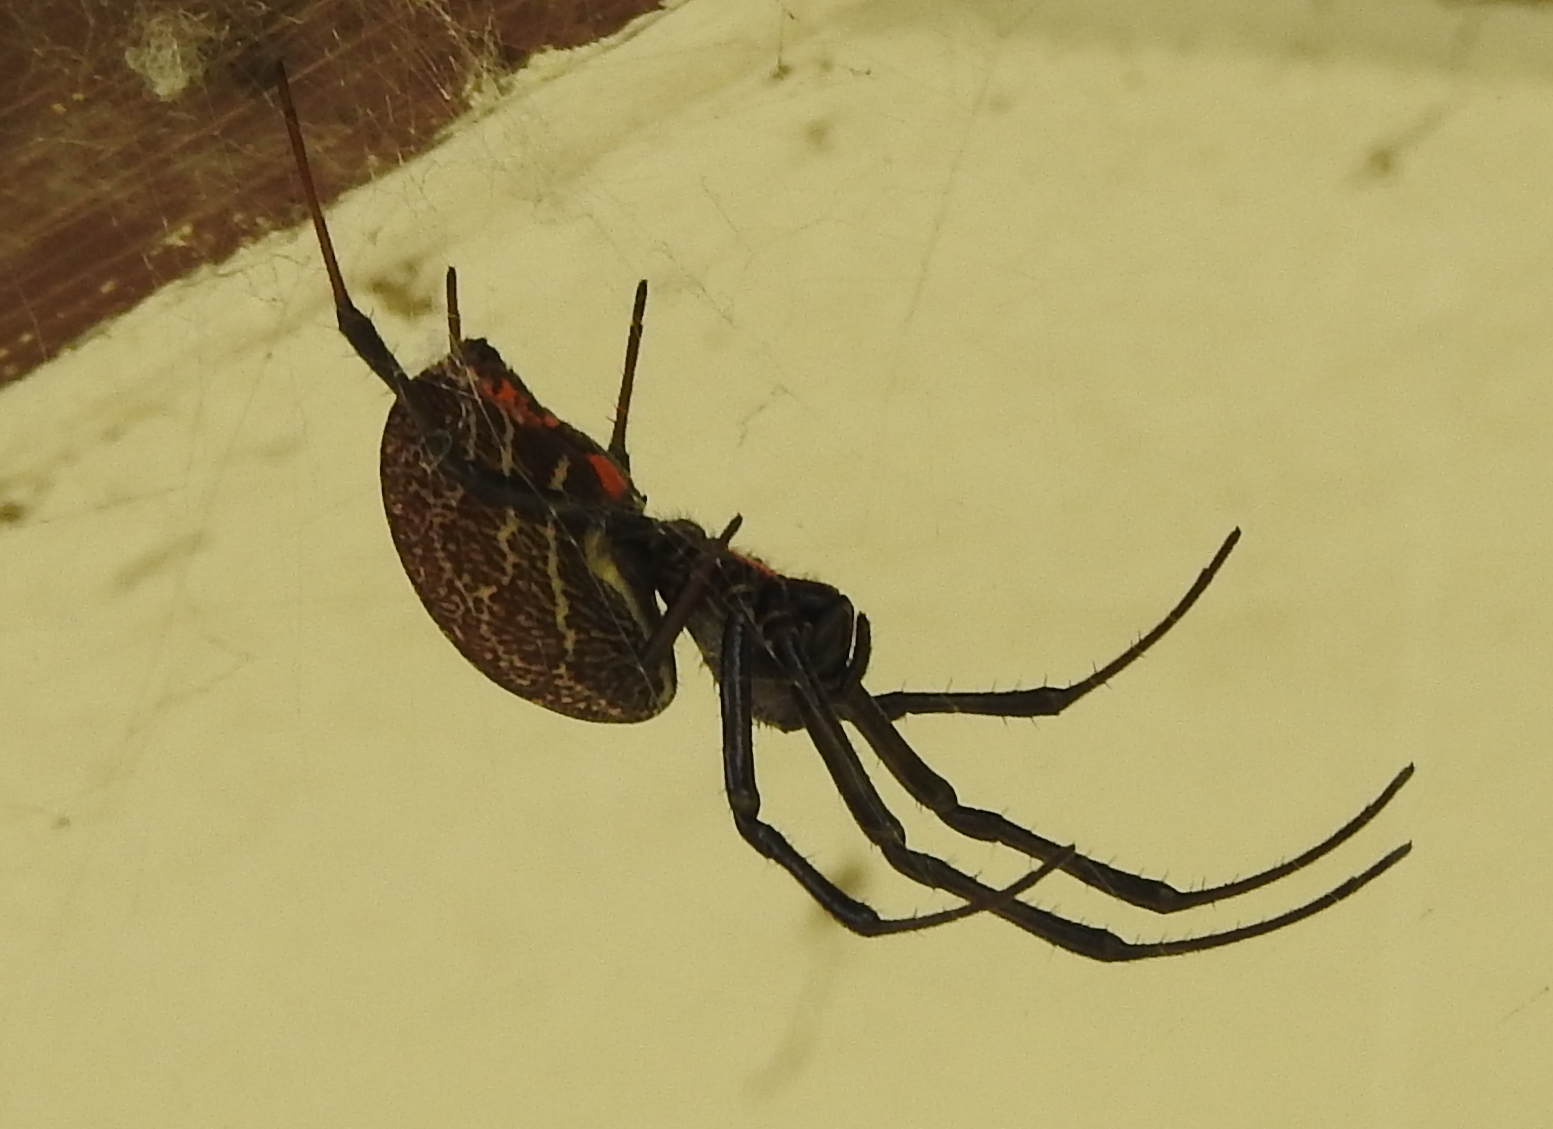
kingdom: Animalia
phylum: Arthropoda
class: Arachnida
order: Araneae
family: Araneidae
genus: Nephilengys
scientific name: Nephilengys malabarensis
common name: Asian hermit spider
